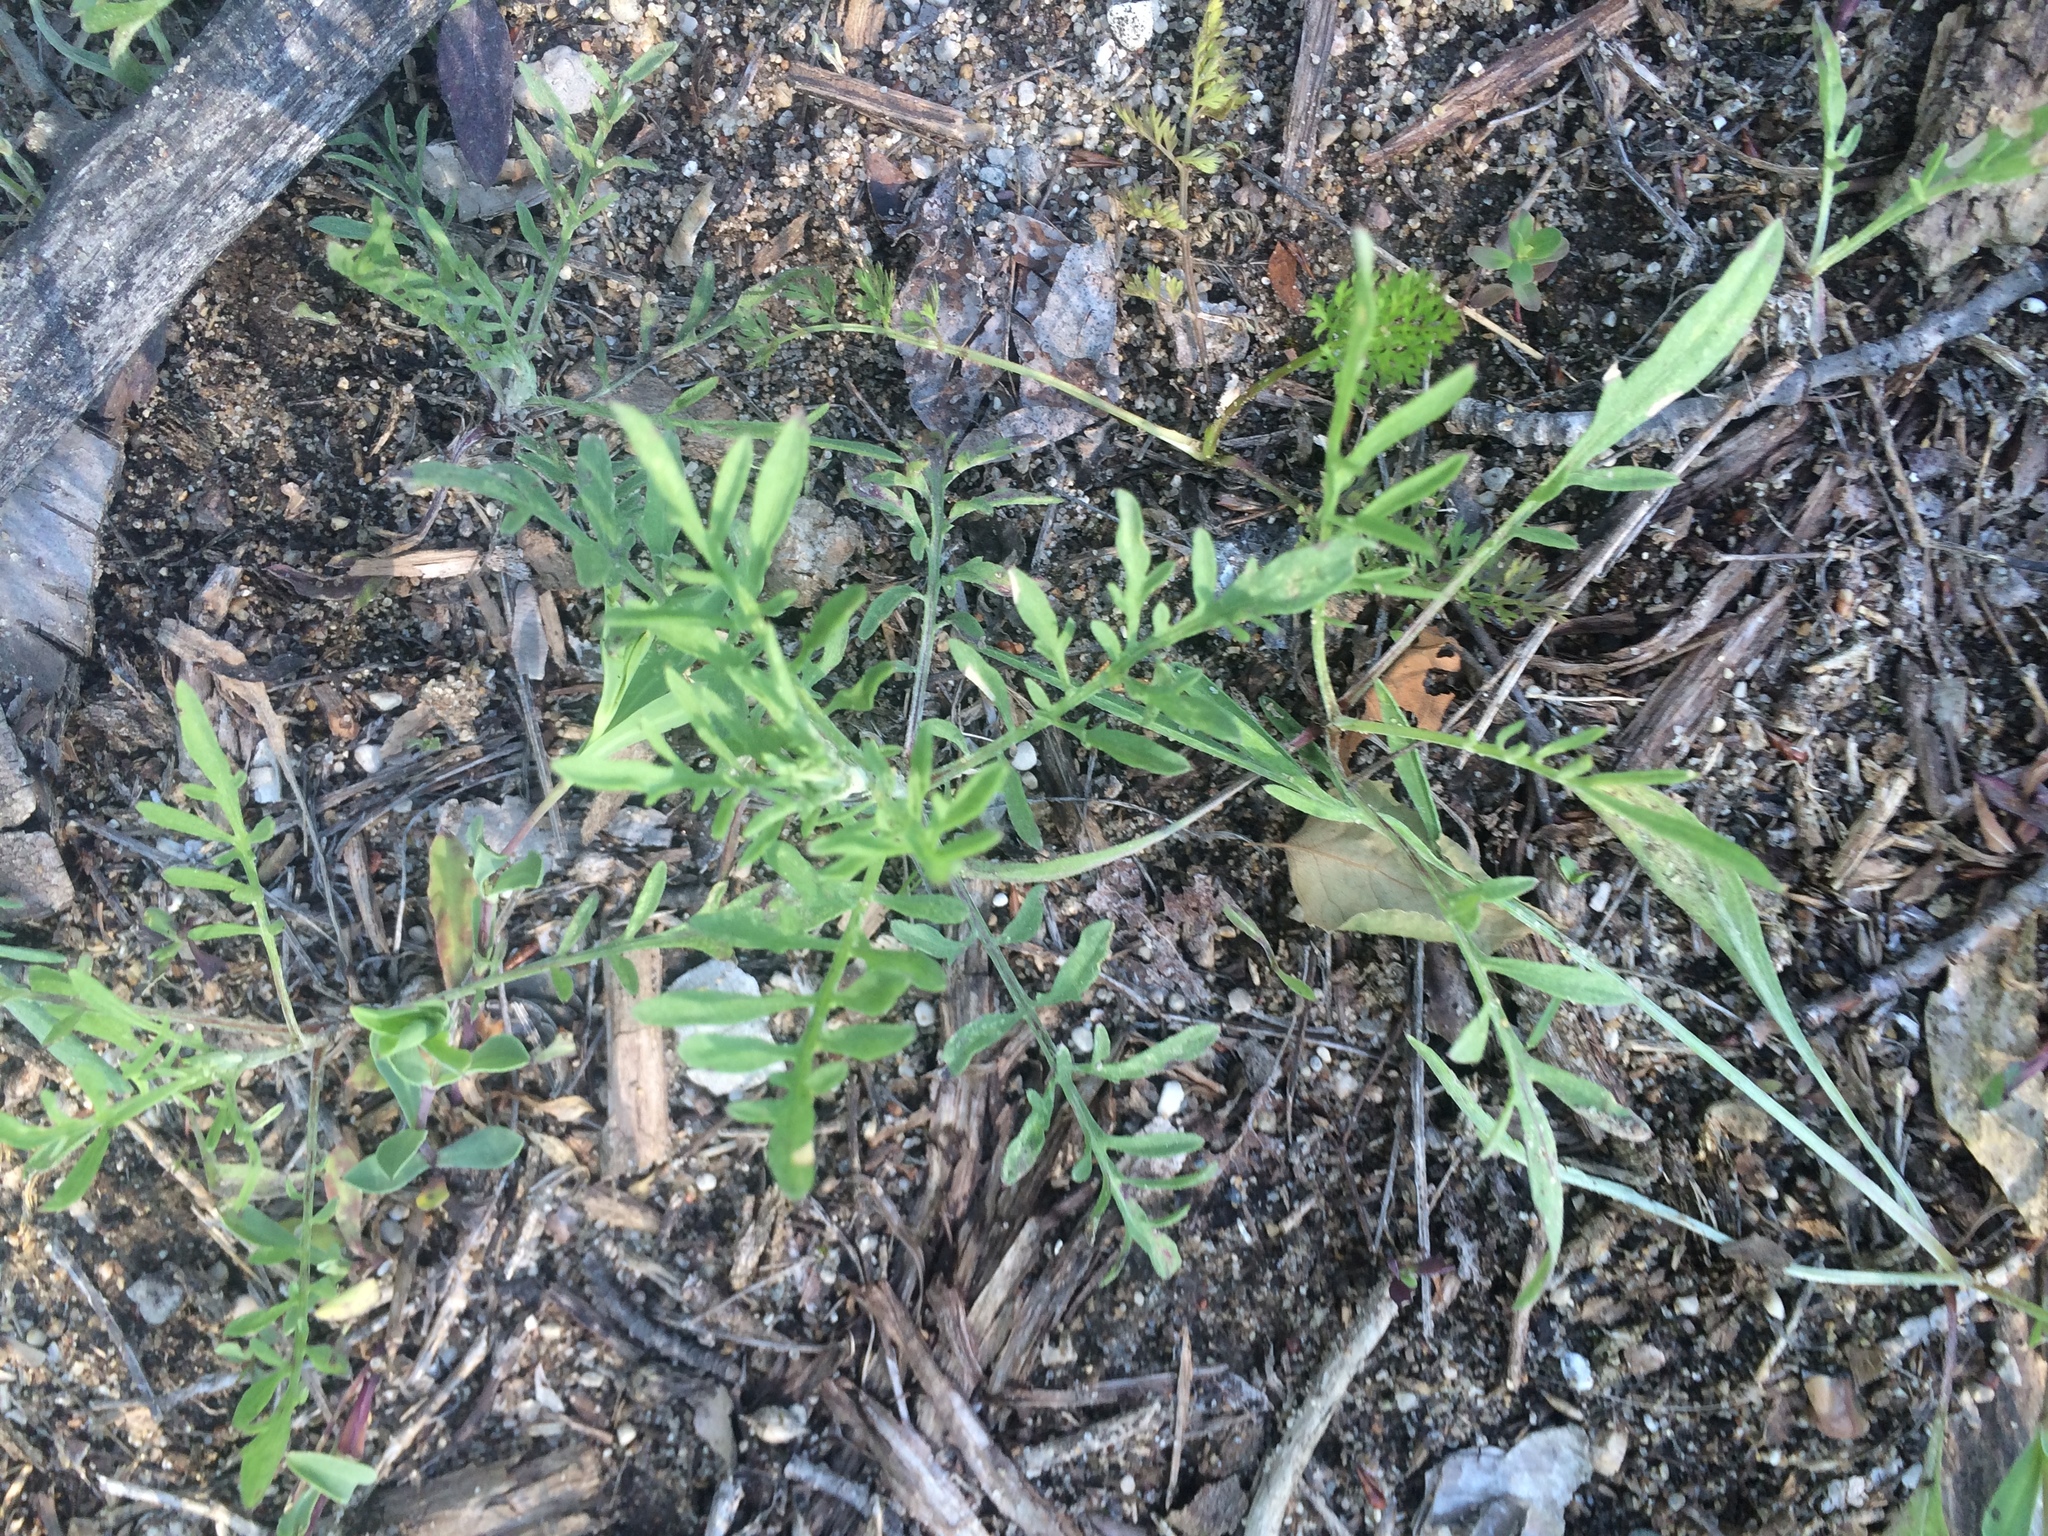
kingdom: Plantae
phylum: Tracheophyta
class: Magnoliopsida
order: Asterales
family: Asteraceae
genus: Centaurea
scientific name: Centaurea stoebe
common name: Spotted knapweed
